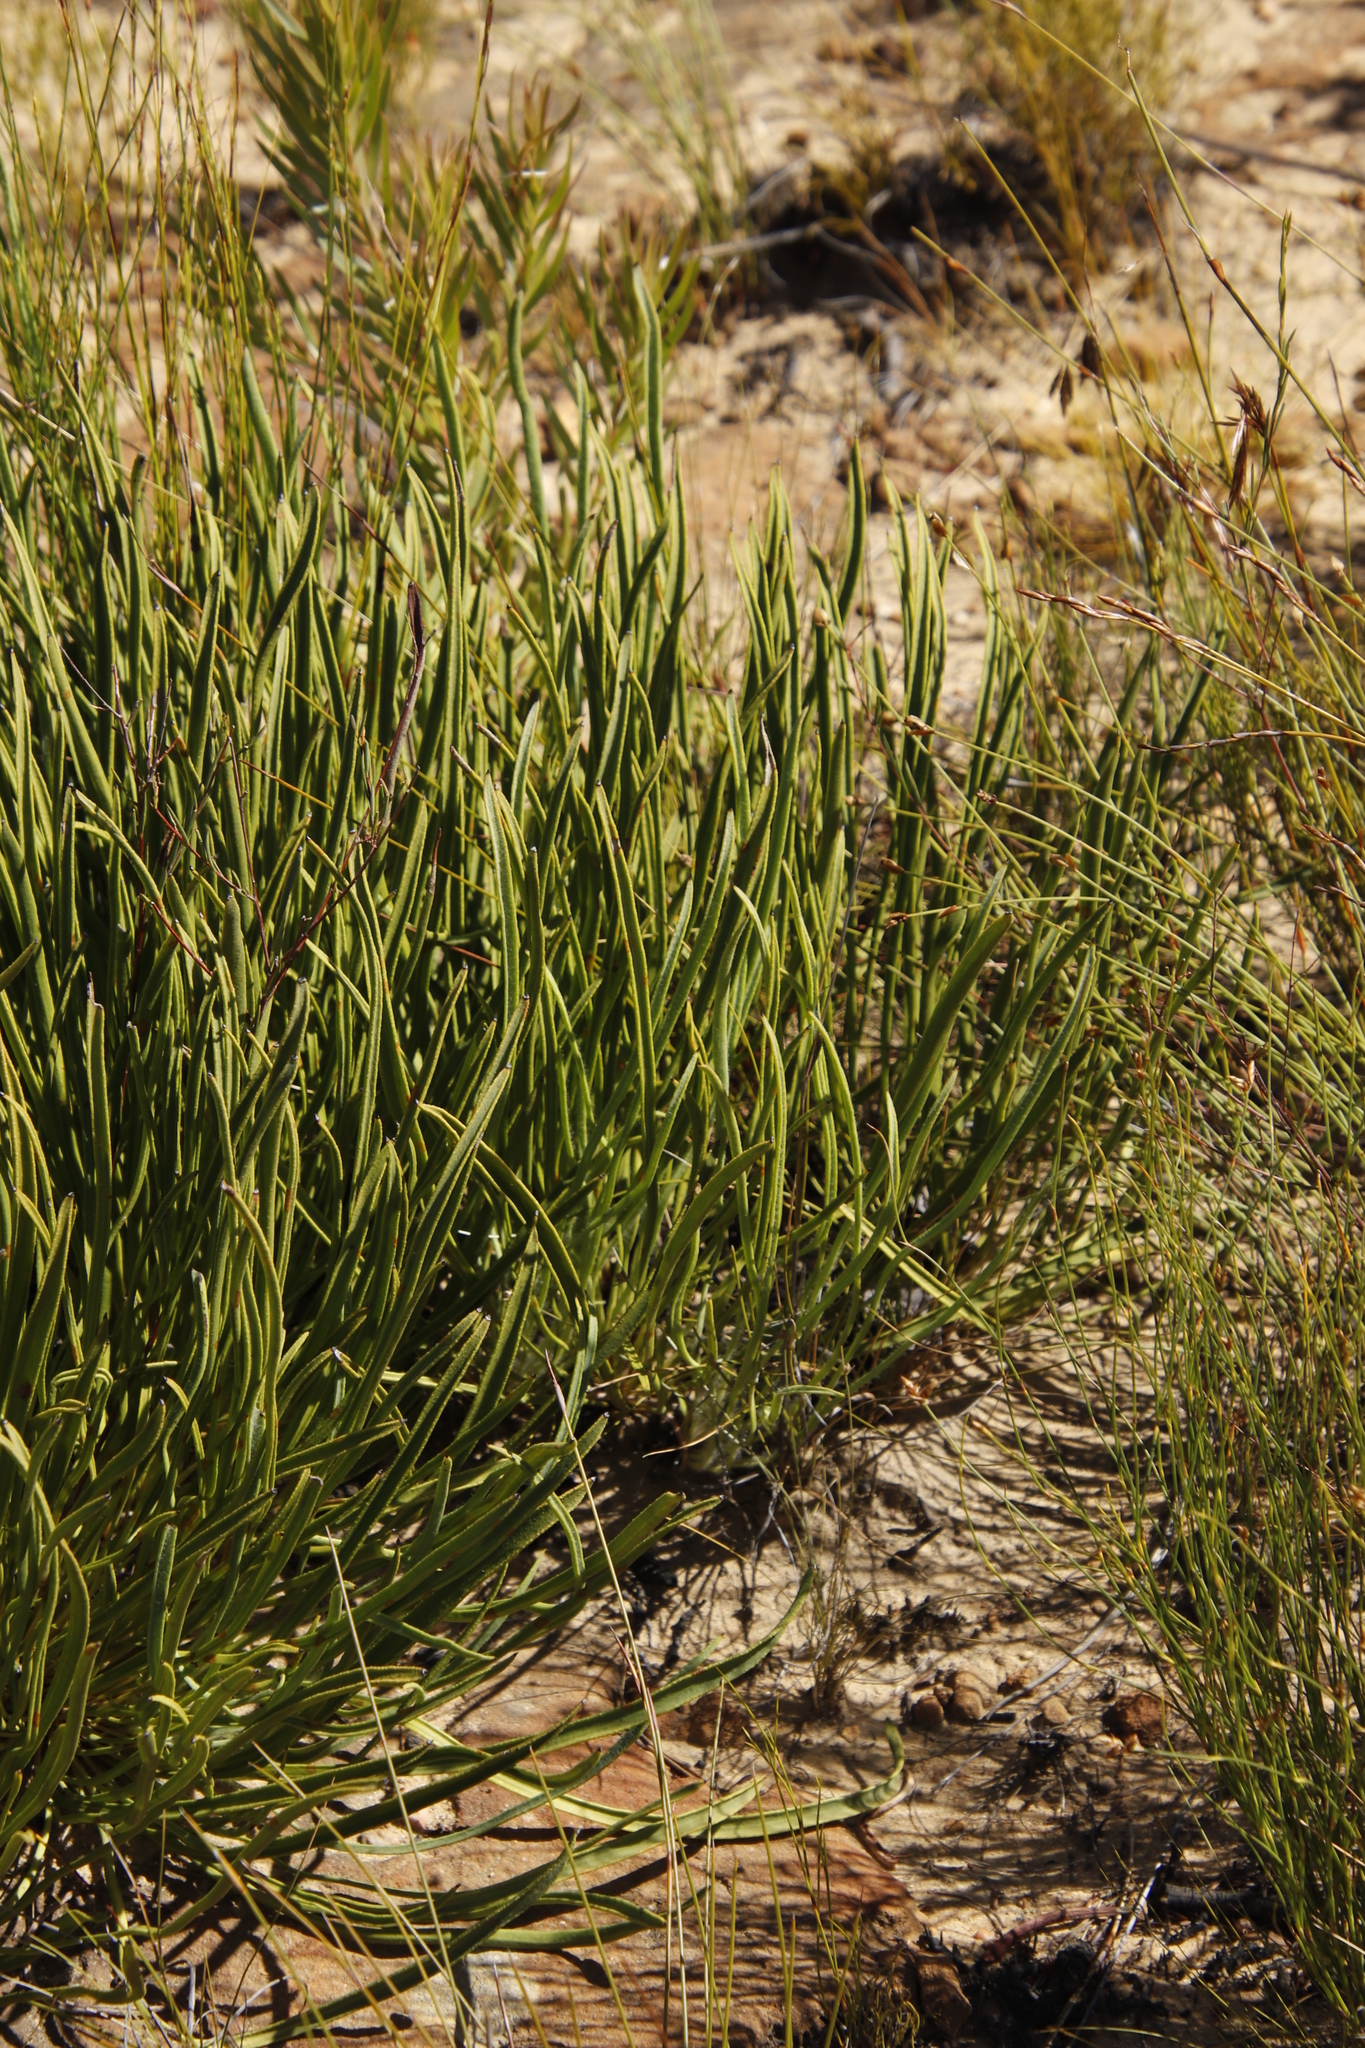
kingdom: Plantae
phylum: Tracheophyta
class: Magnoliopsida
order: Proteales
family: Proteaceae
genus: Protea
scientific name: Protea scabra
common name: Sandpaper-leaf sugarbush
